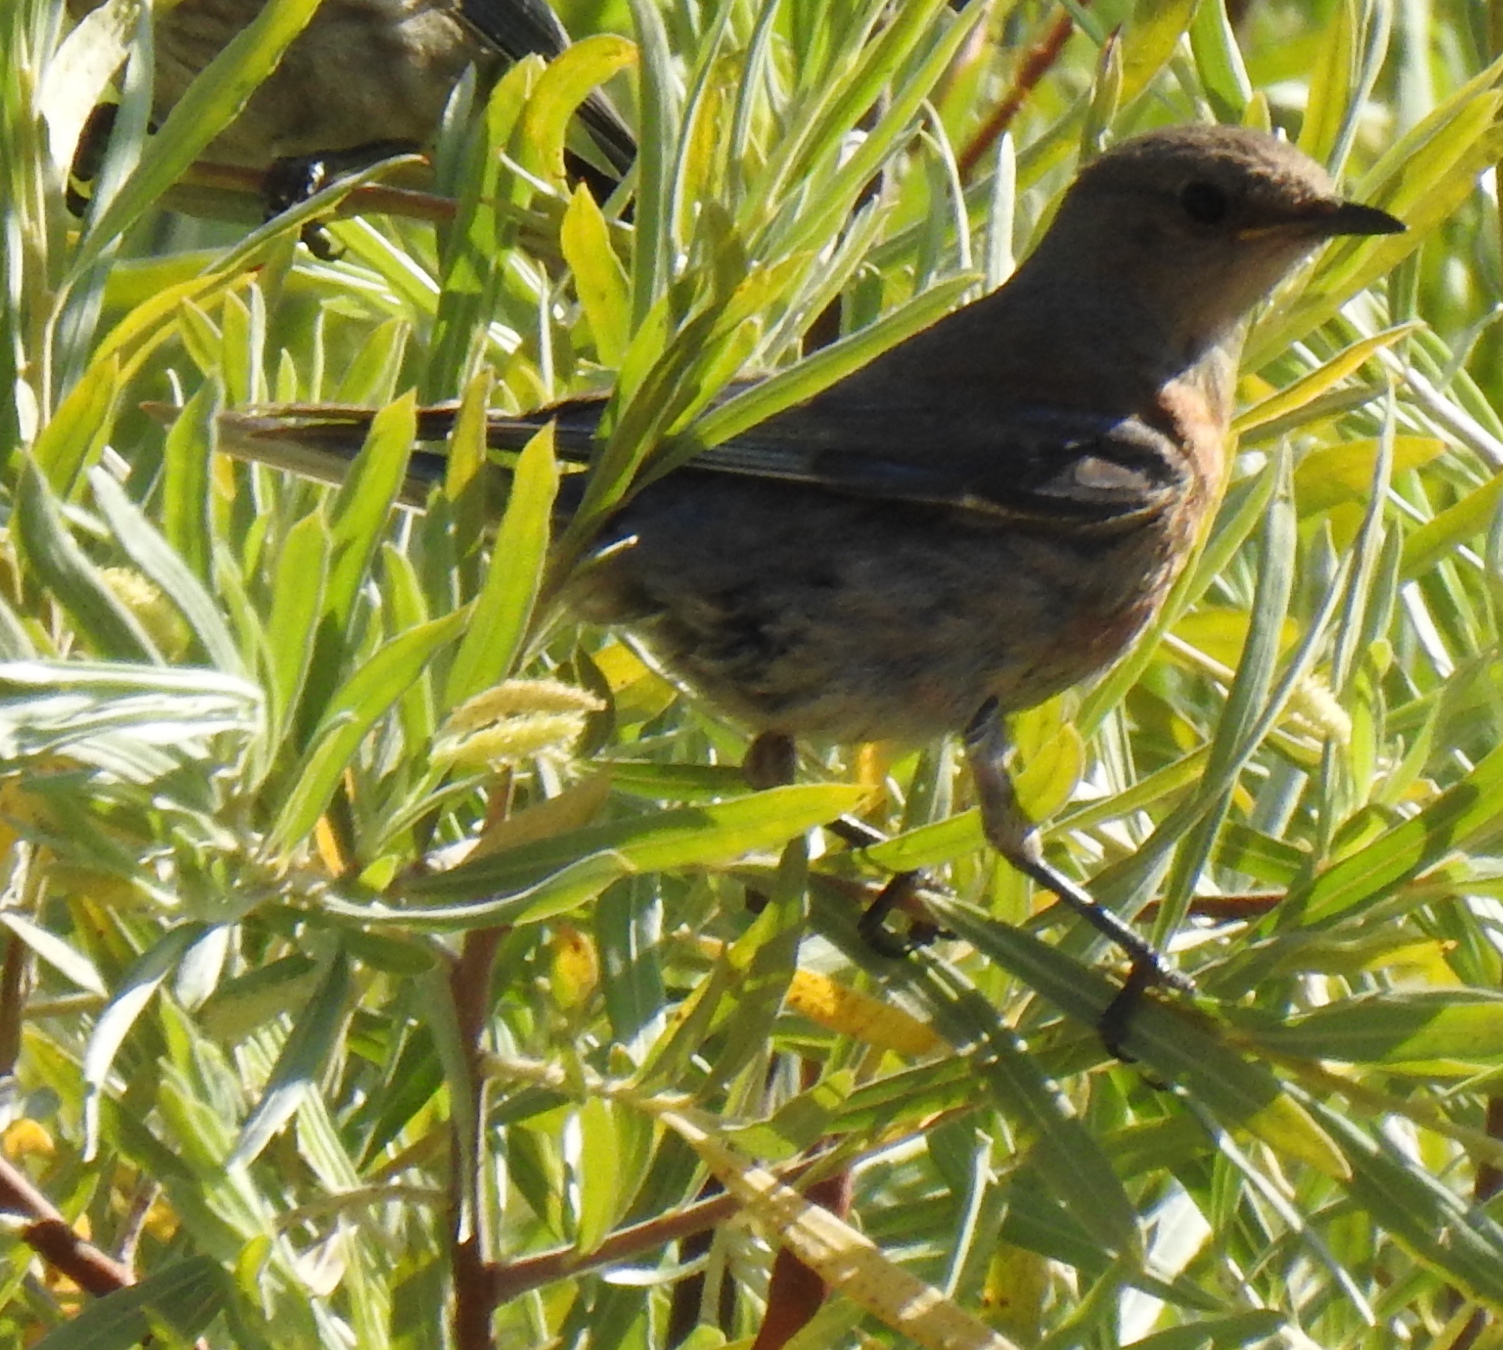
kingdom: Animalia
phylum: Chordata
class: Aves
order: Passeriformes
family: Turdidae
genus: Sialia
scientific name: Sialia mexicana
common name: Western bluebird
